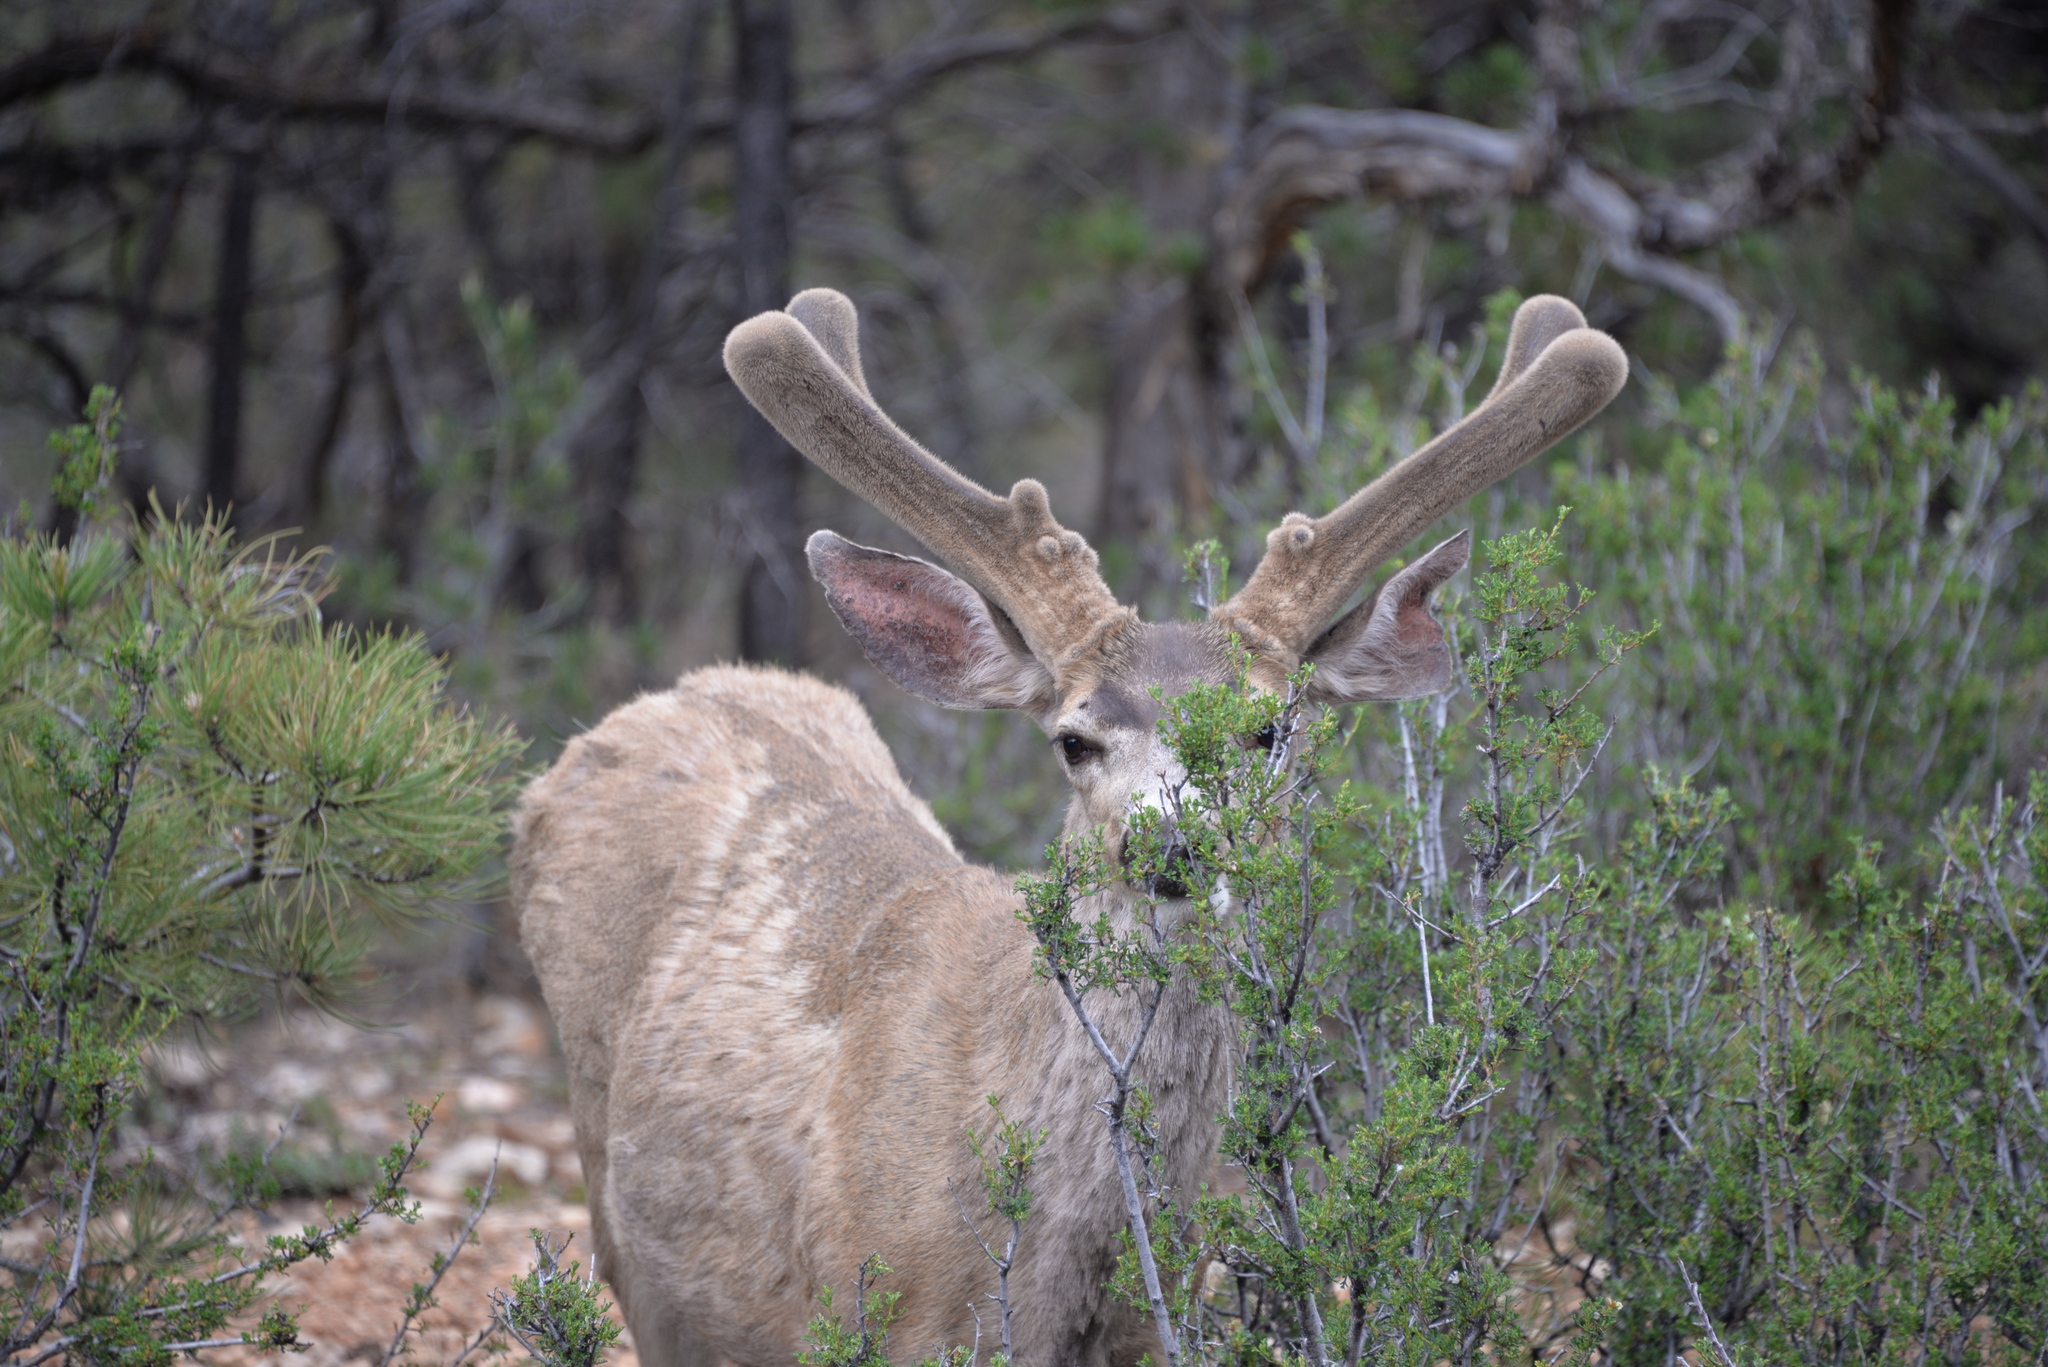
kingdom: Animalia
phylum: Chordata
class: Mammalia
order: Artiodactyla
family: Cervidae
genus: Odocoileus
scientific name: Odocoileus hemionus
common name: Mule deer
